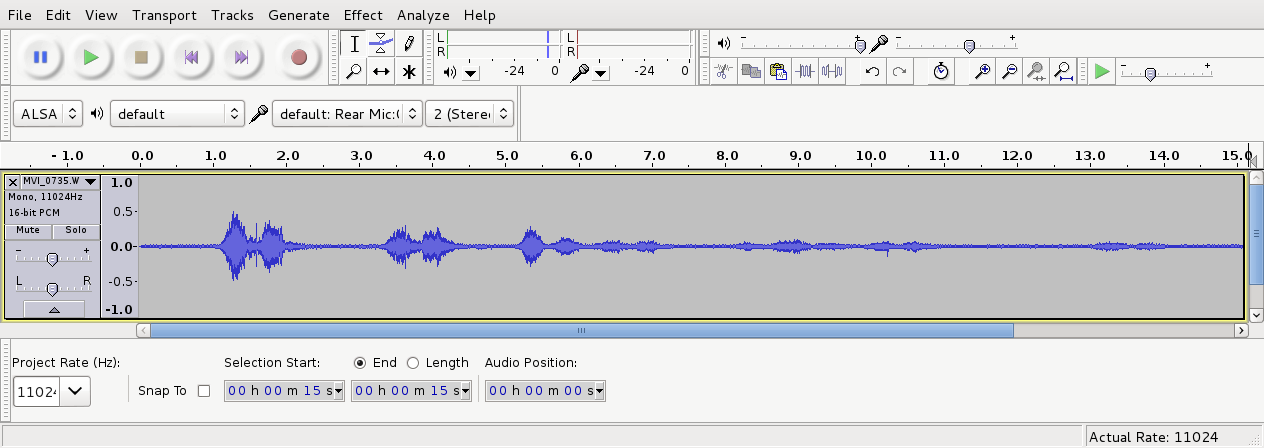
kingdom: Animalia
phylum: Chordata
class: Aves
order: Strigiformes
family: Strigidae
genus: Ninox
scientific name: Ninox novaeseelandiae
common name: Morepork
